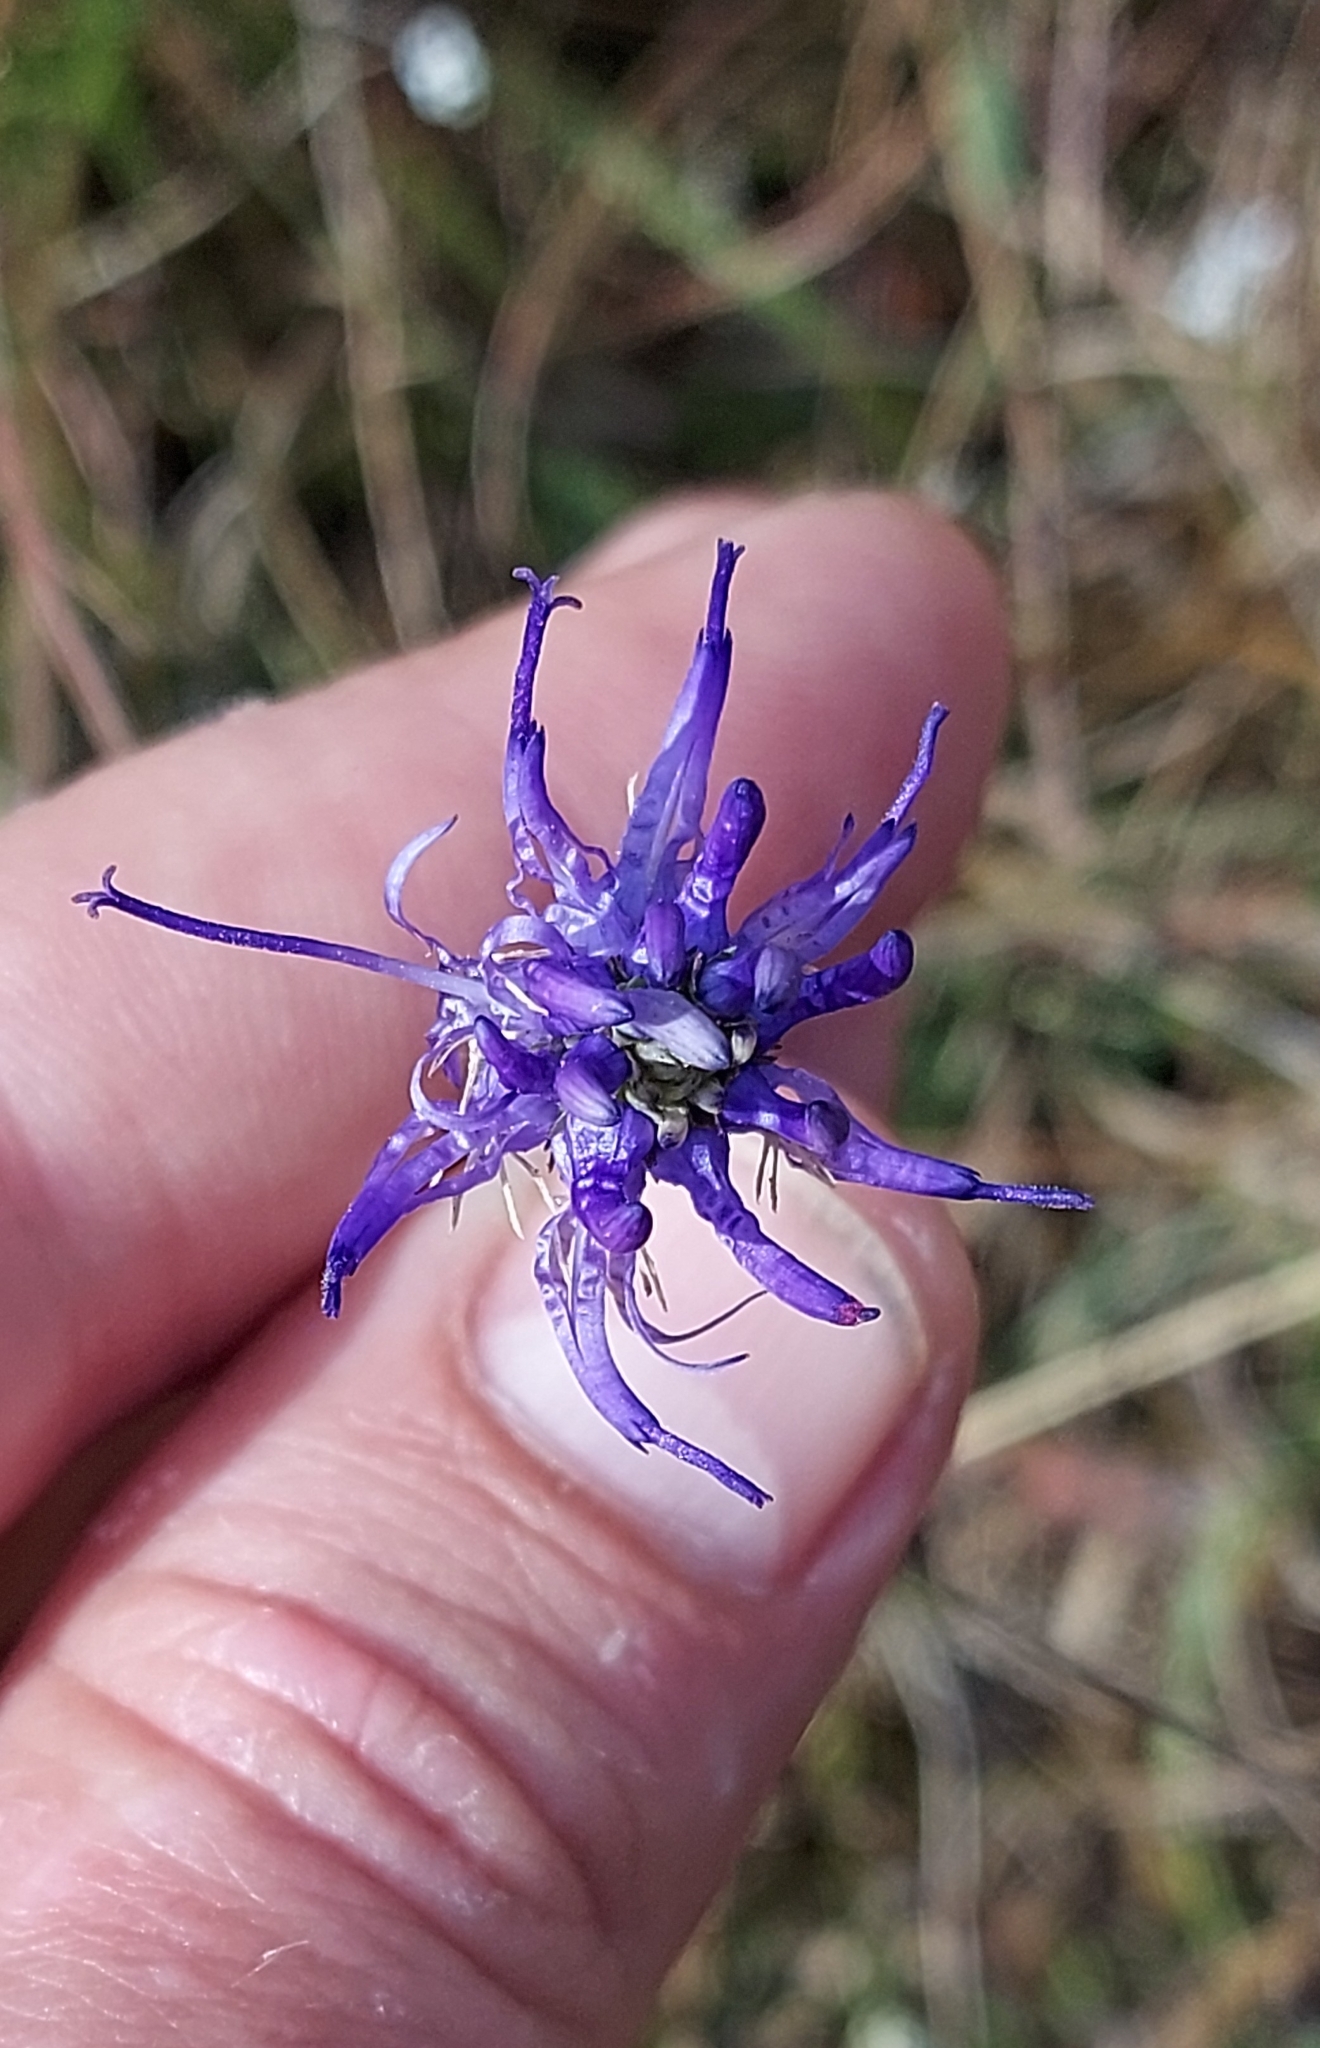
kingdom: Plantae
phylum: Tracheophyta
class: Magnoliopsida
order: Asterales
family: Campanulaceae
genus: Phyteuma
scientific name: Phyteuma orbiculare
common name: Round-headed rampion
